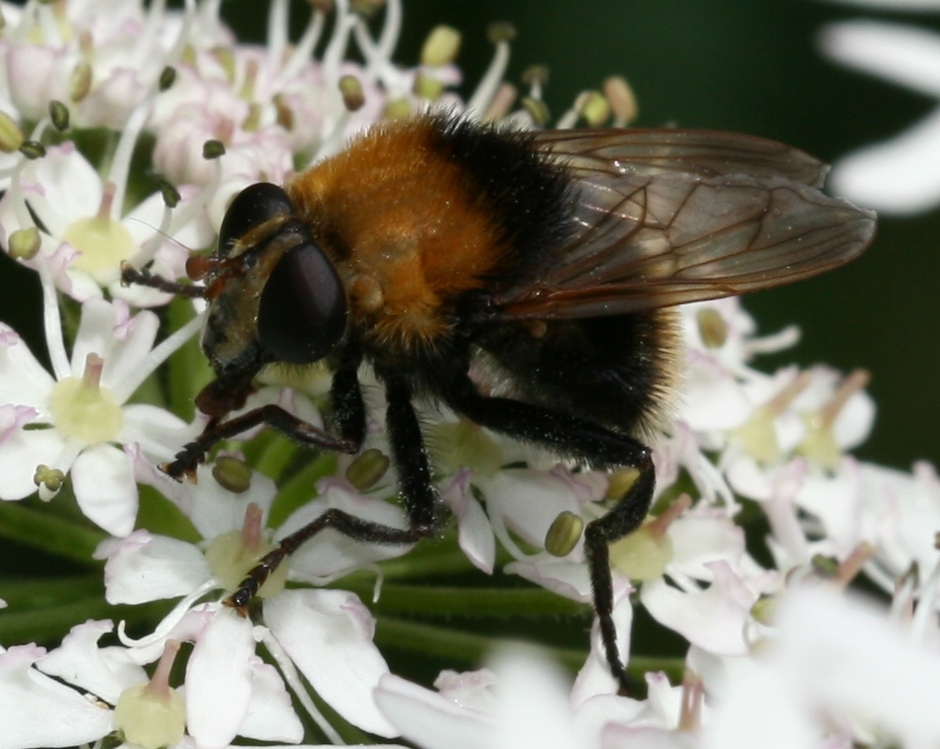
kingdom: Animalia
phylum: Arthropoda
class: Insecta
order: Diptera
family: Syrphidae
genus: Criorhina
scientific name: Criorhina berberina
